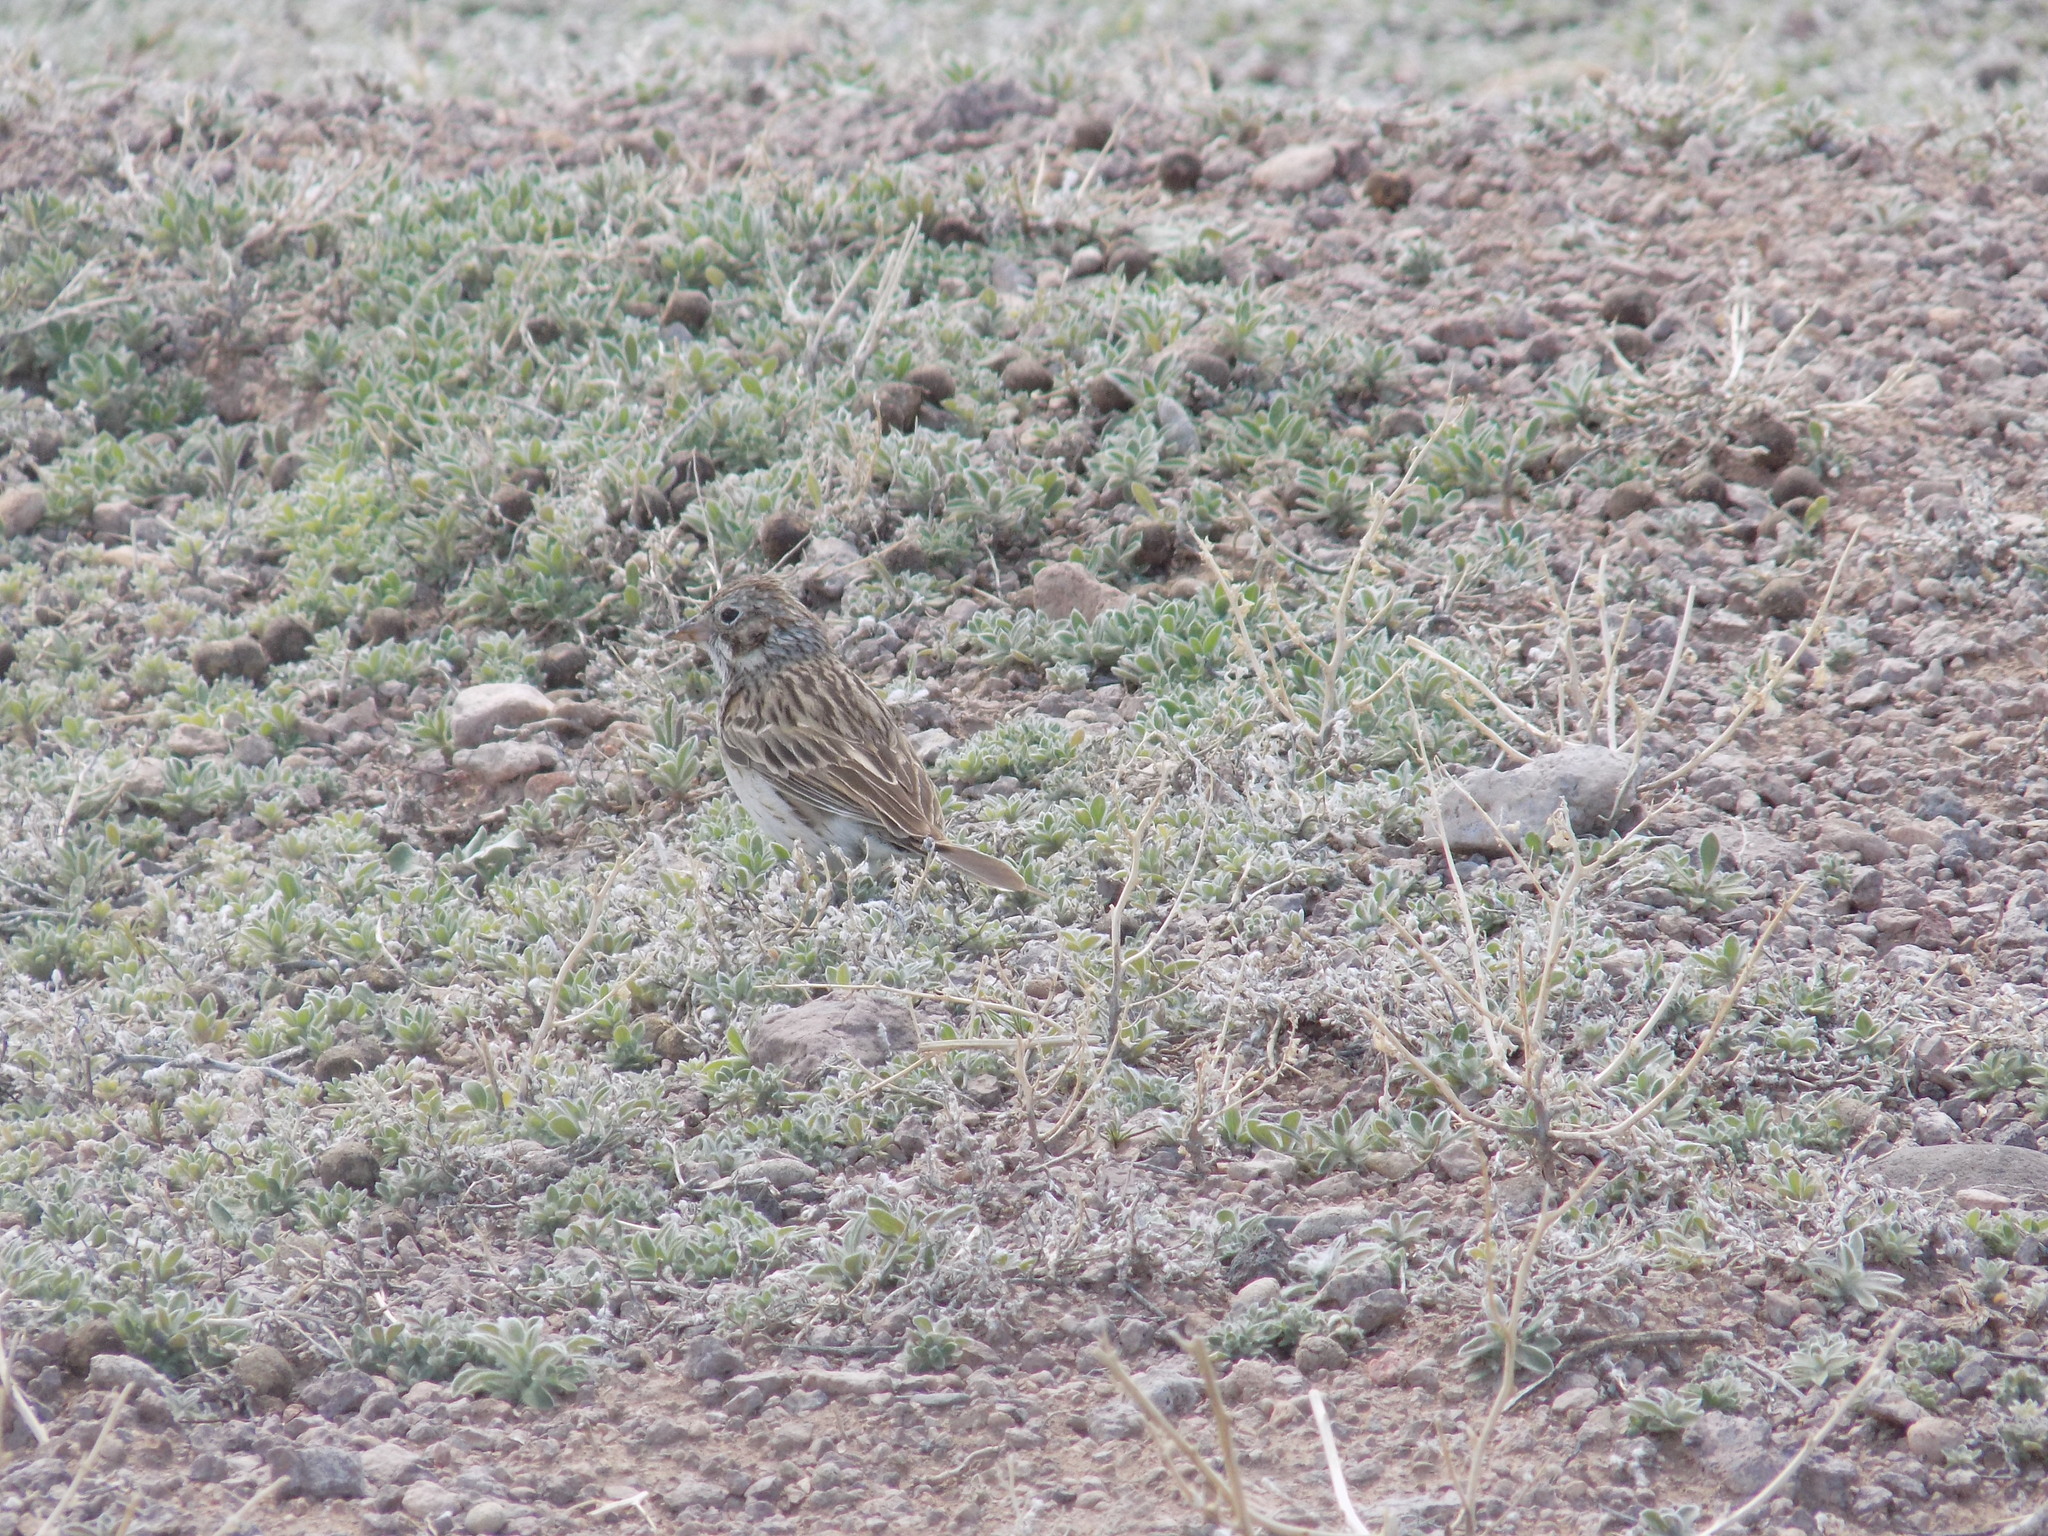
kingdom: Animalia
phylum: Chordata
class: Aves
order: Passeriformes
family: Passerellidae
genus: Pooecetes
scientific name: Pooecetes gramineus
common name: Vesper sparrow
